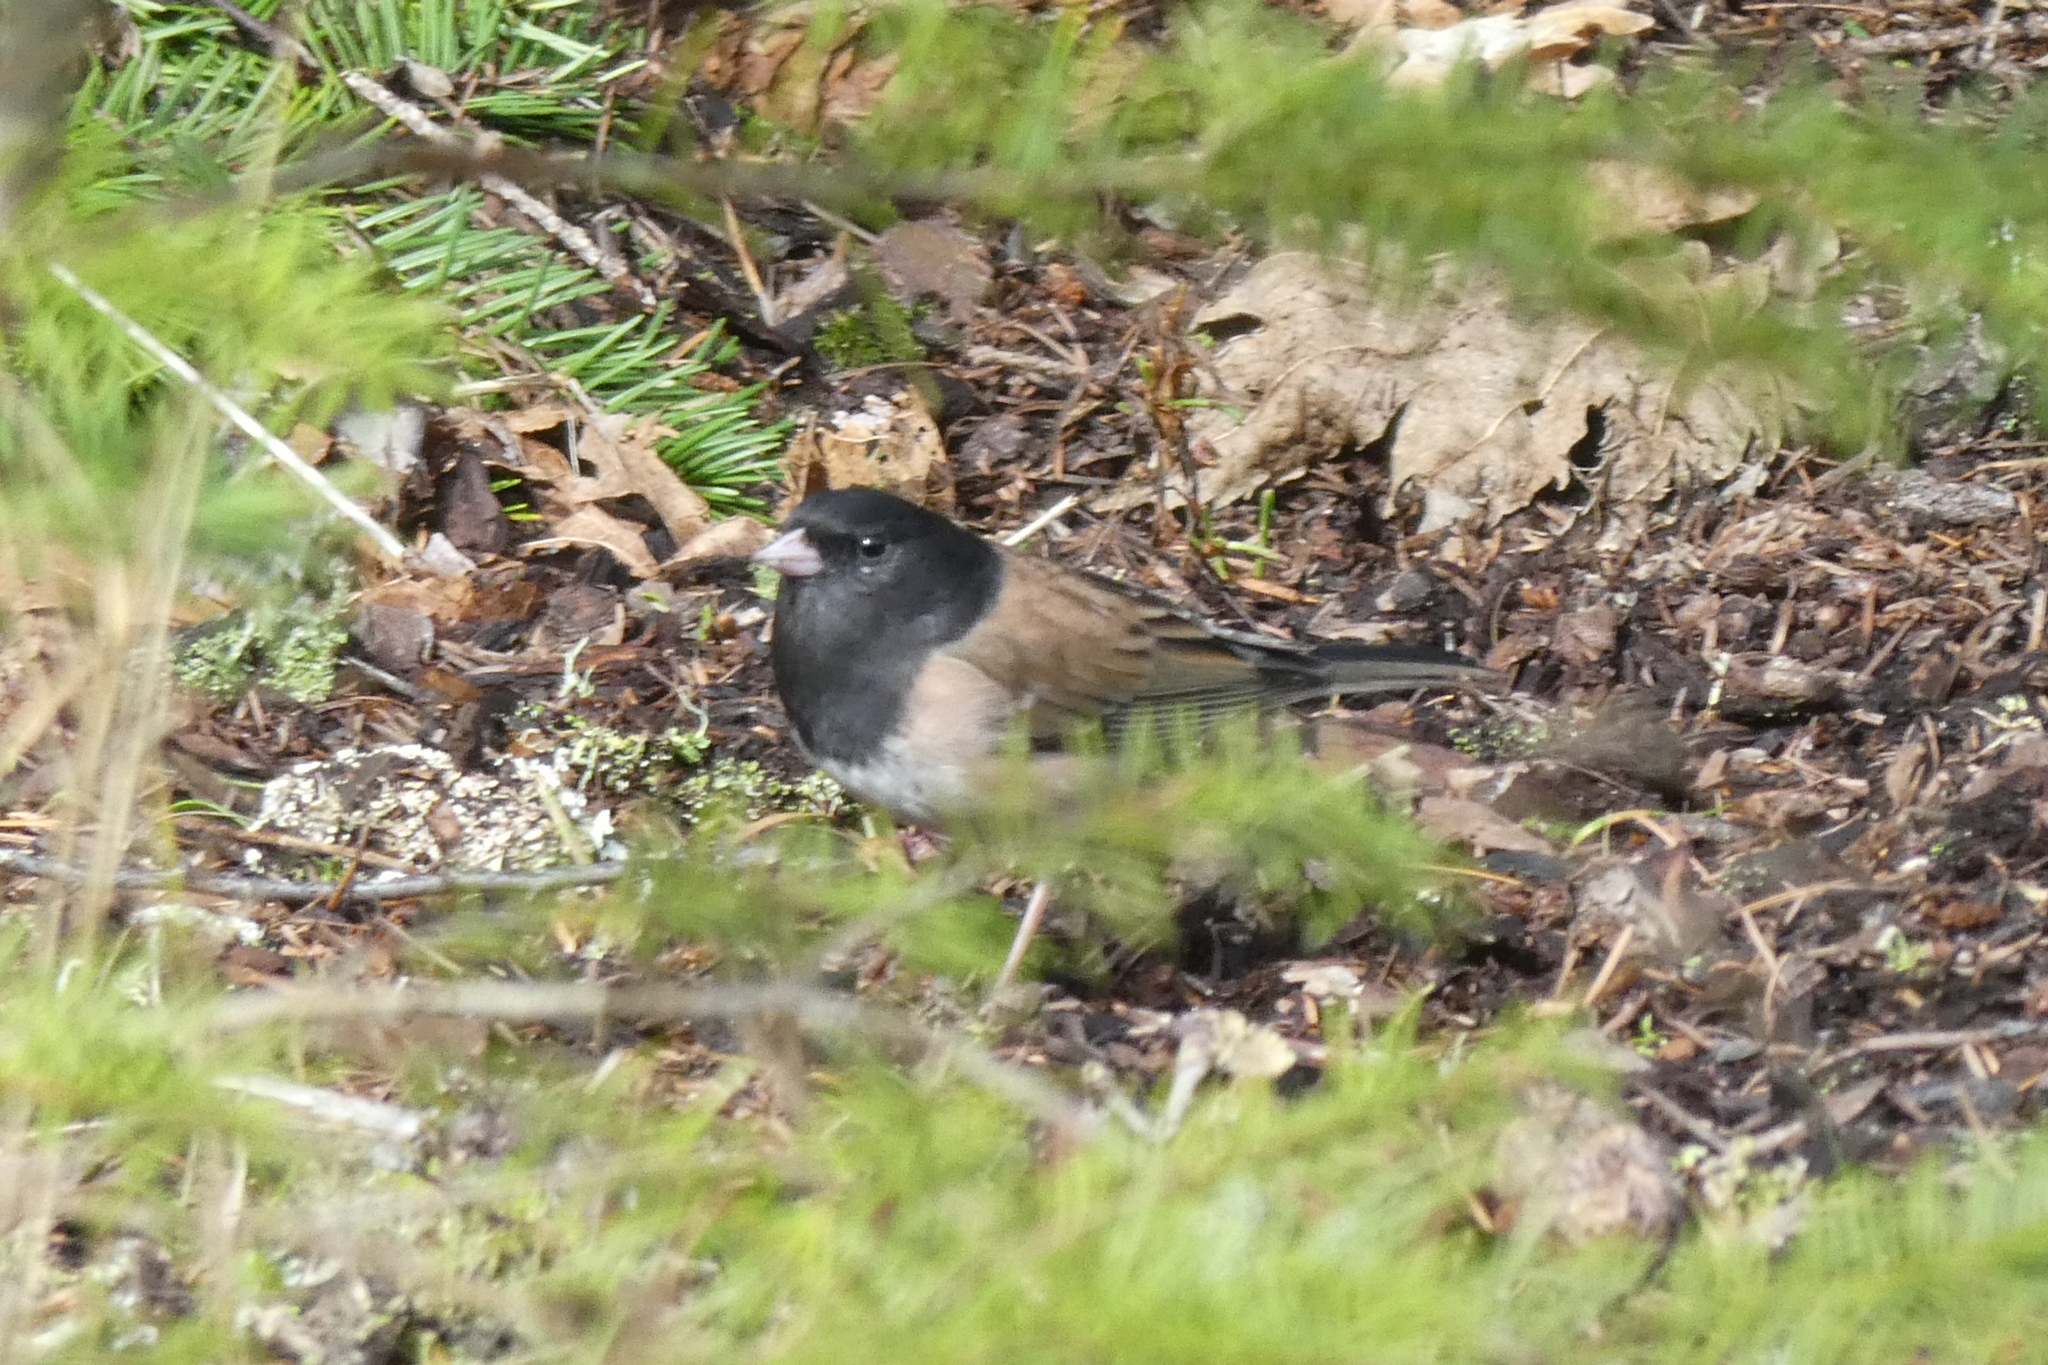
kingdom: Animalia
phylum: Chordata
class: Aves
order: Passeriformes
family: Passerellidae
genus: Junco
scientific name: Junco hyemalis
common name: Dark-eyed junco
